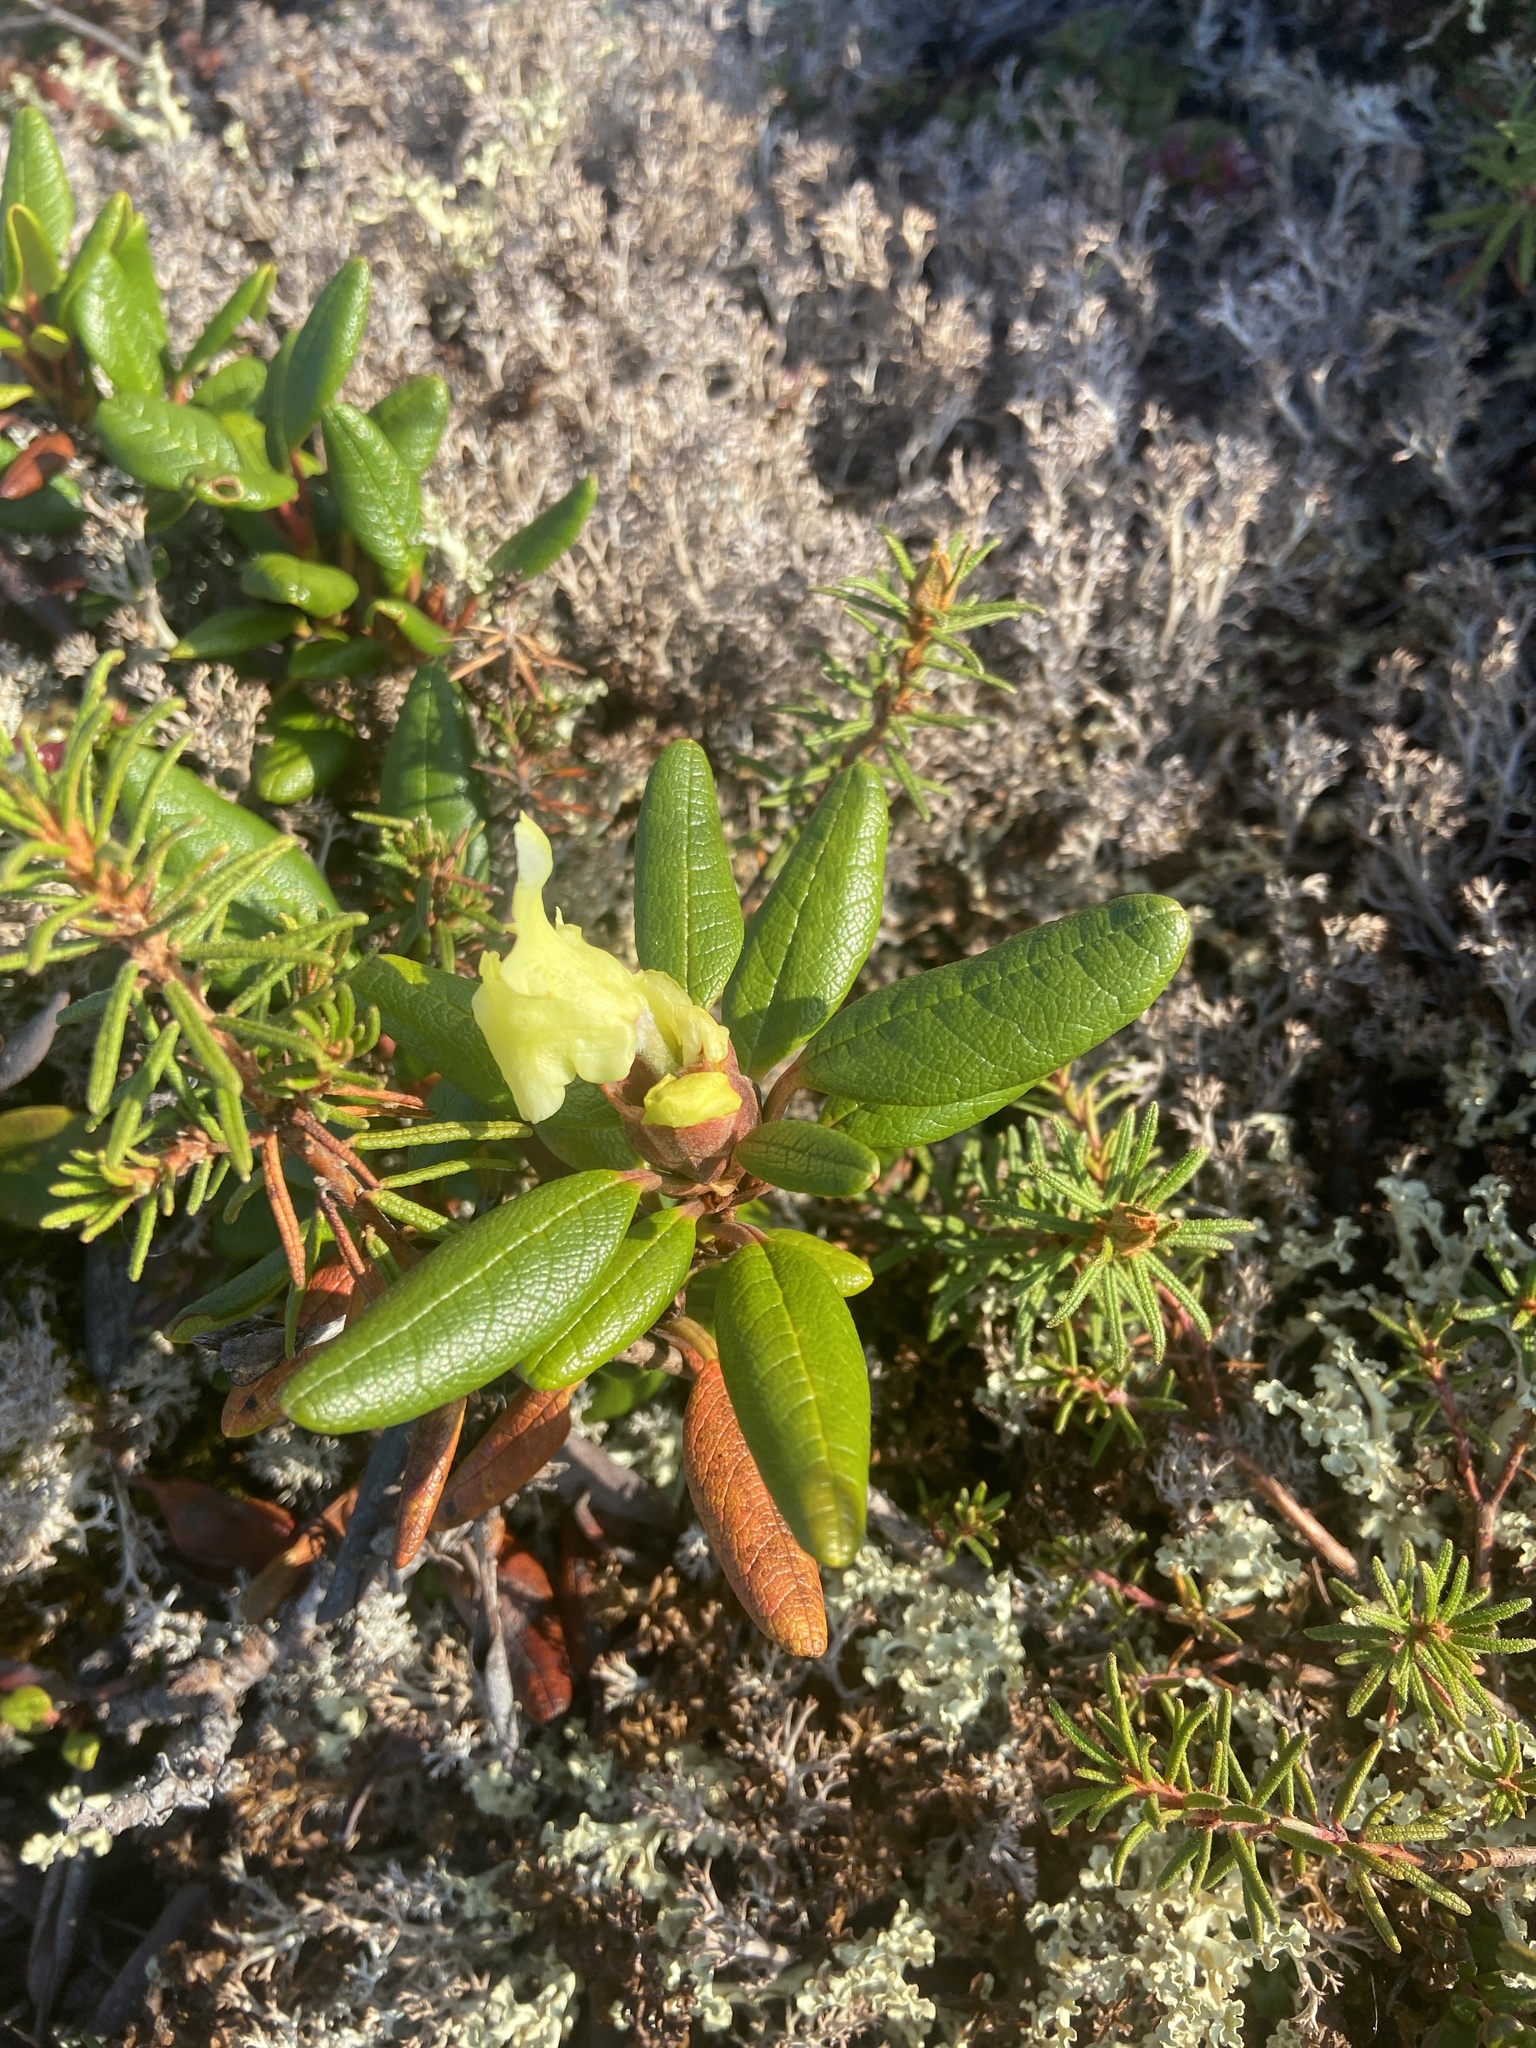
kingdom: Plantae
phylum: Tracheophyta
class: Magnoliopsida
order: Ericales
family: Ericaceae
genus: Rhododendron
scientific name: Rhododendron aureum
